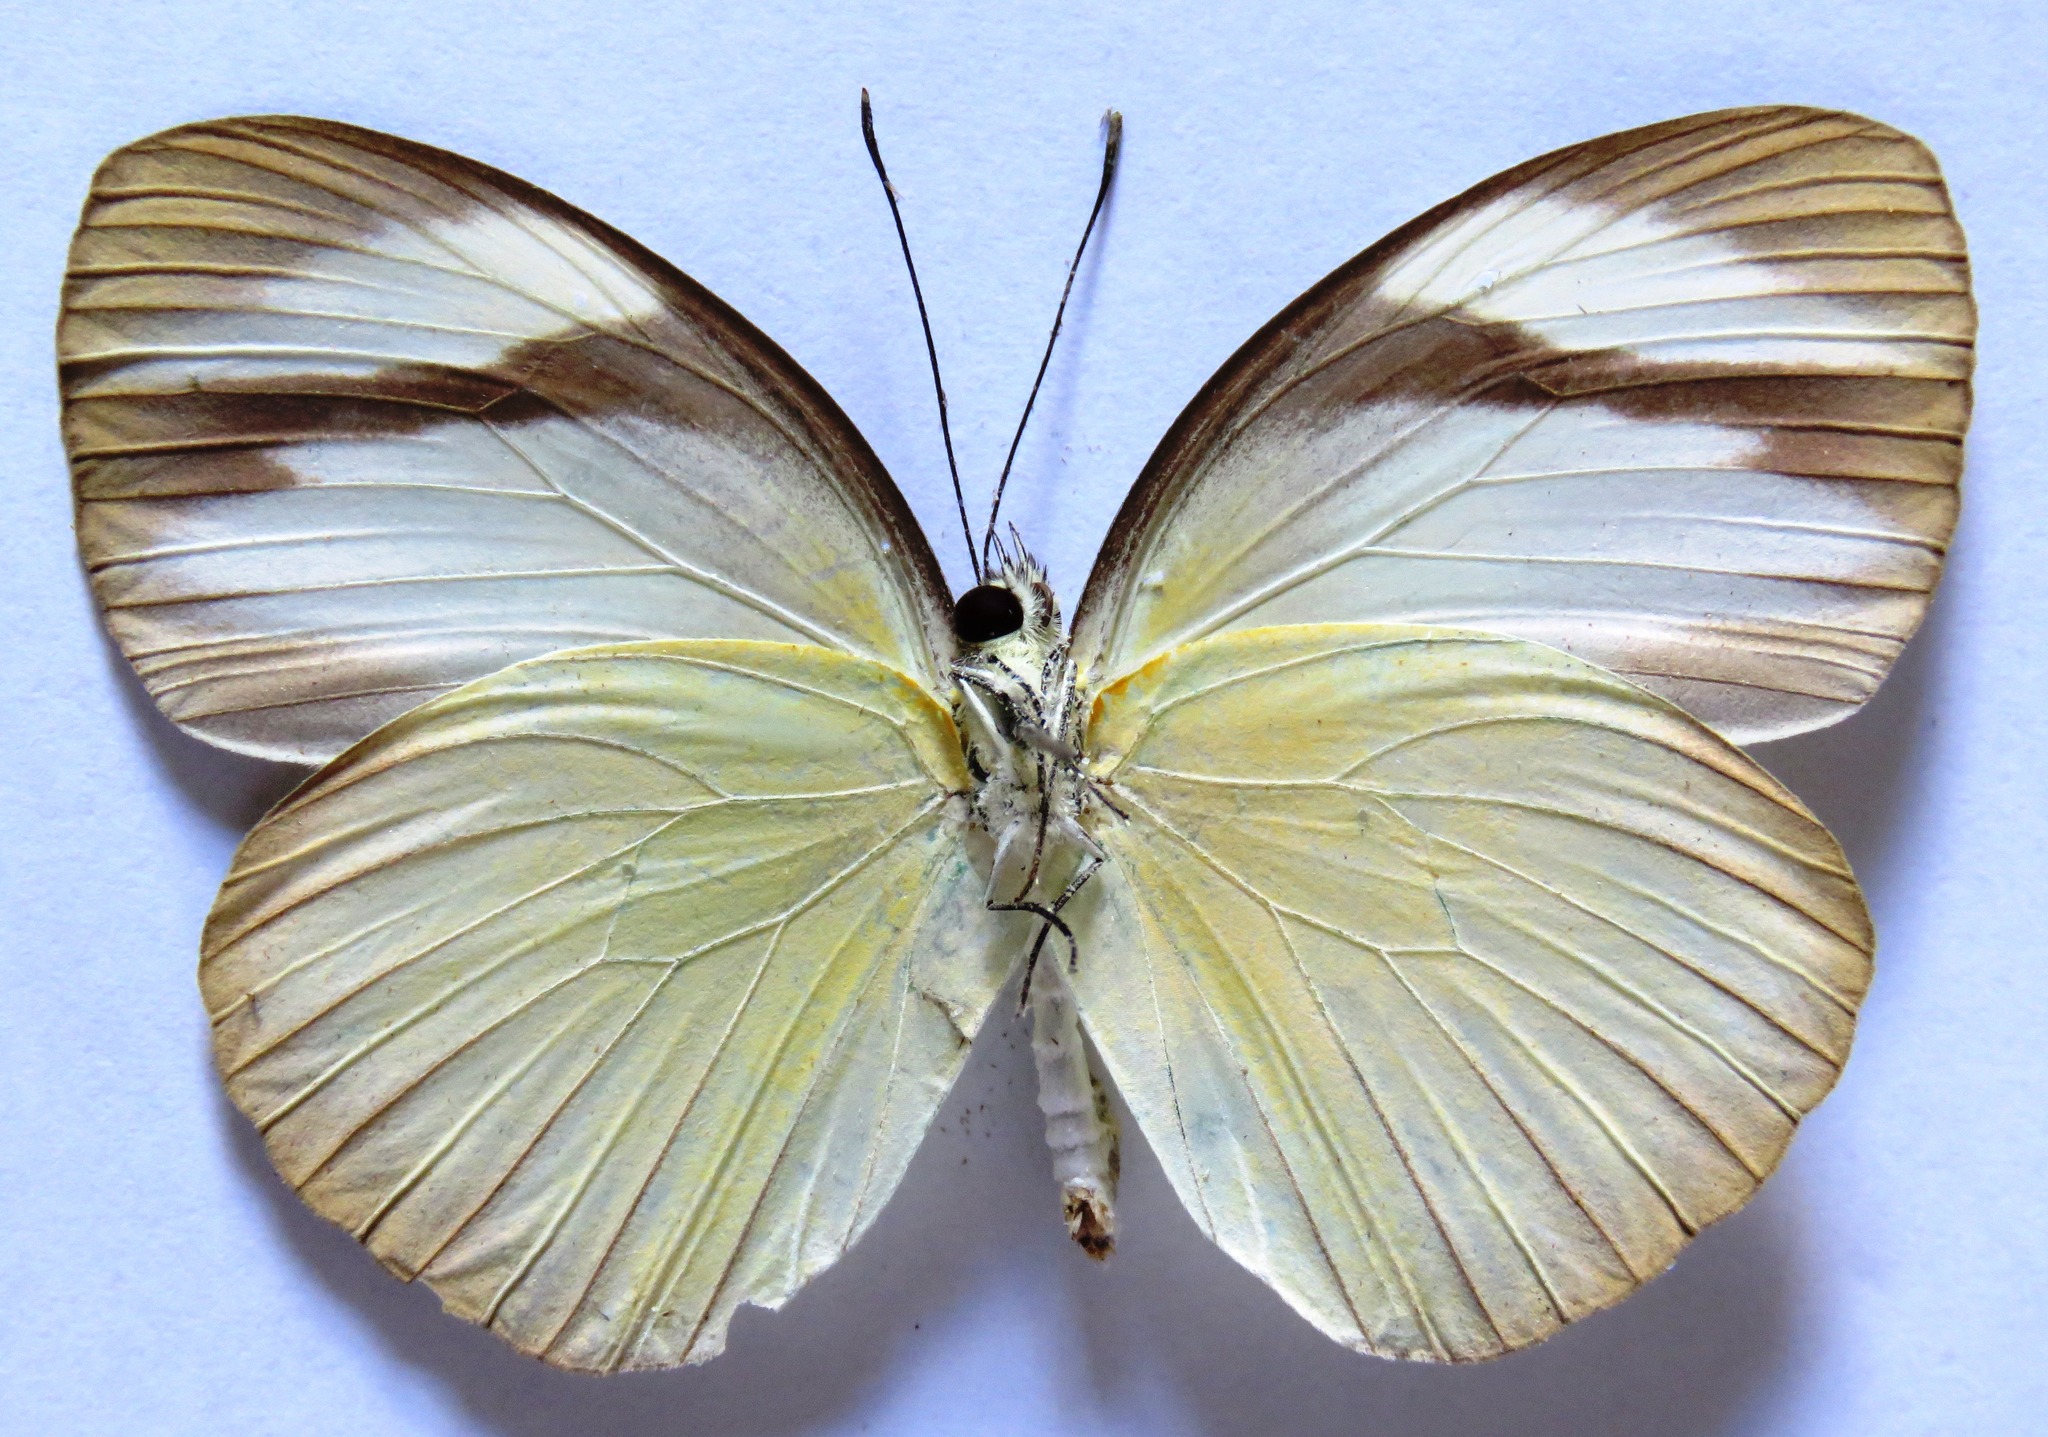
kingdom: Animalia
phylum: Arthropoda
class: Insecta
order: Lepidoptera
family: Pieridae
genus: Itaballia
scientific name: Itaballia demophile
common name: Cross-barred white
